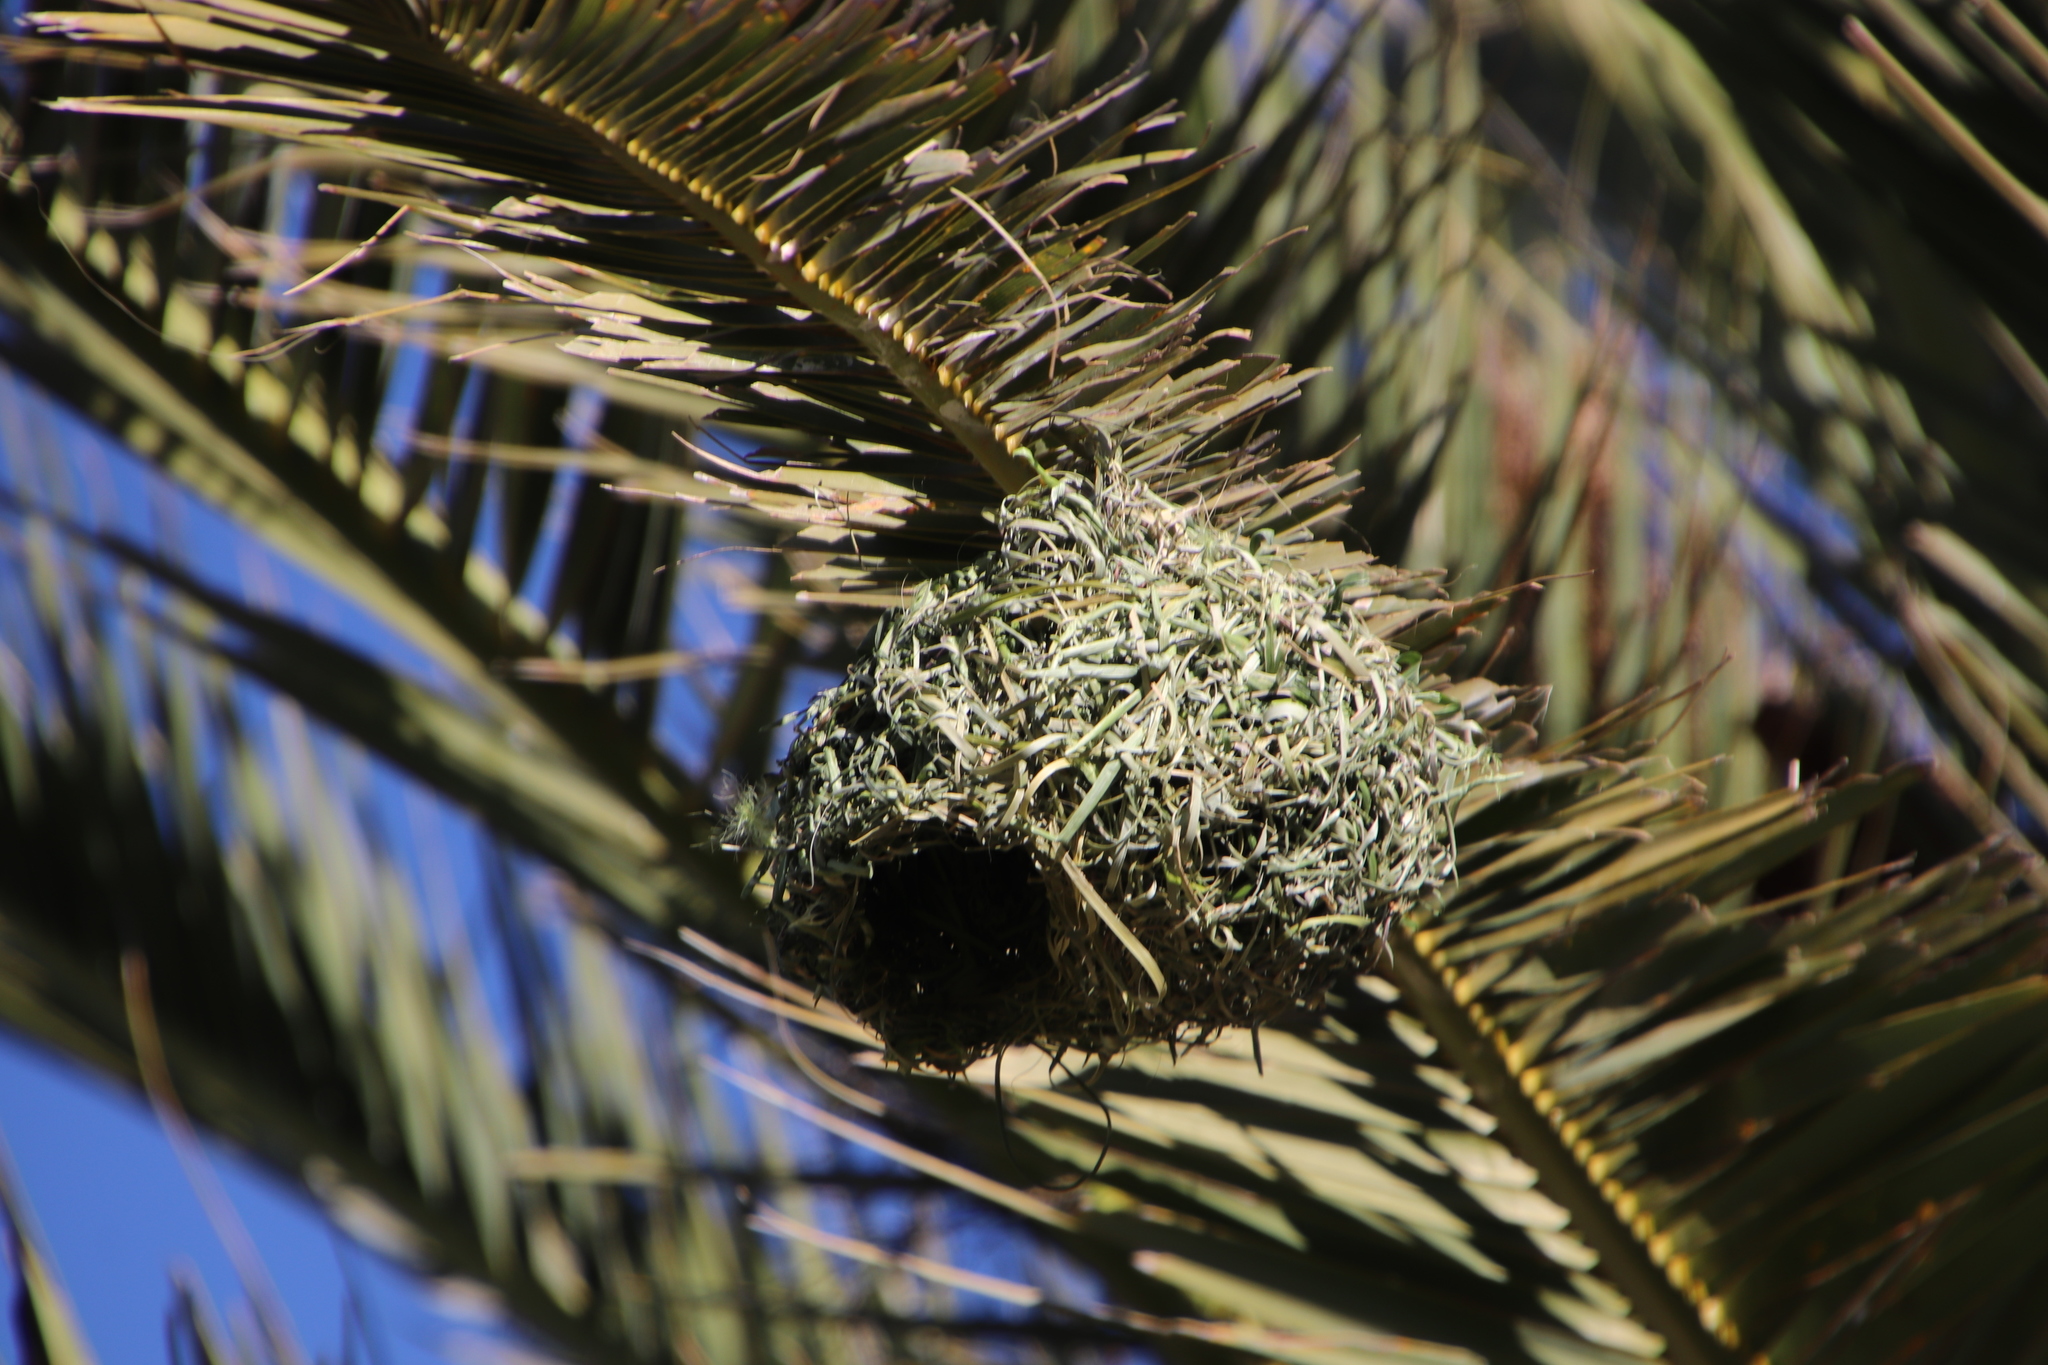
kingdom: Animalia
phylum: Chordata
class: Aves
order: Passeriformes
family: Ploceidae
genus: Ploceus
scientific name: Ploceus capensis
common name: Cape weaver
